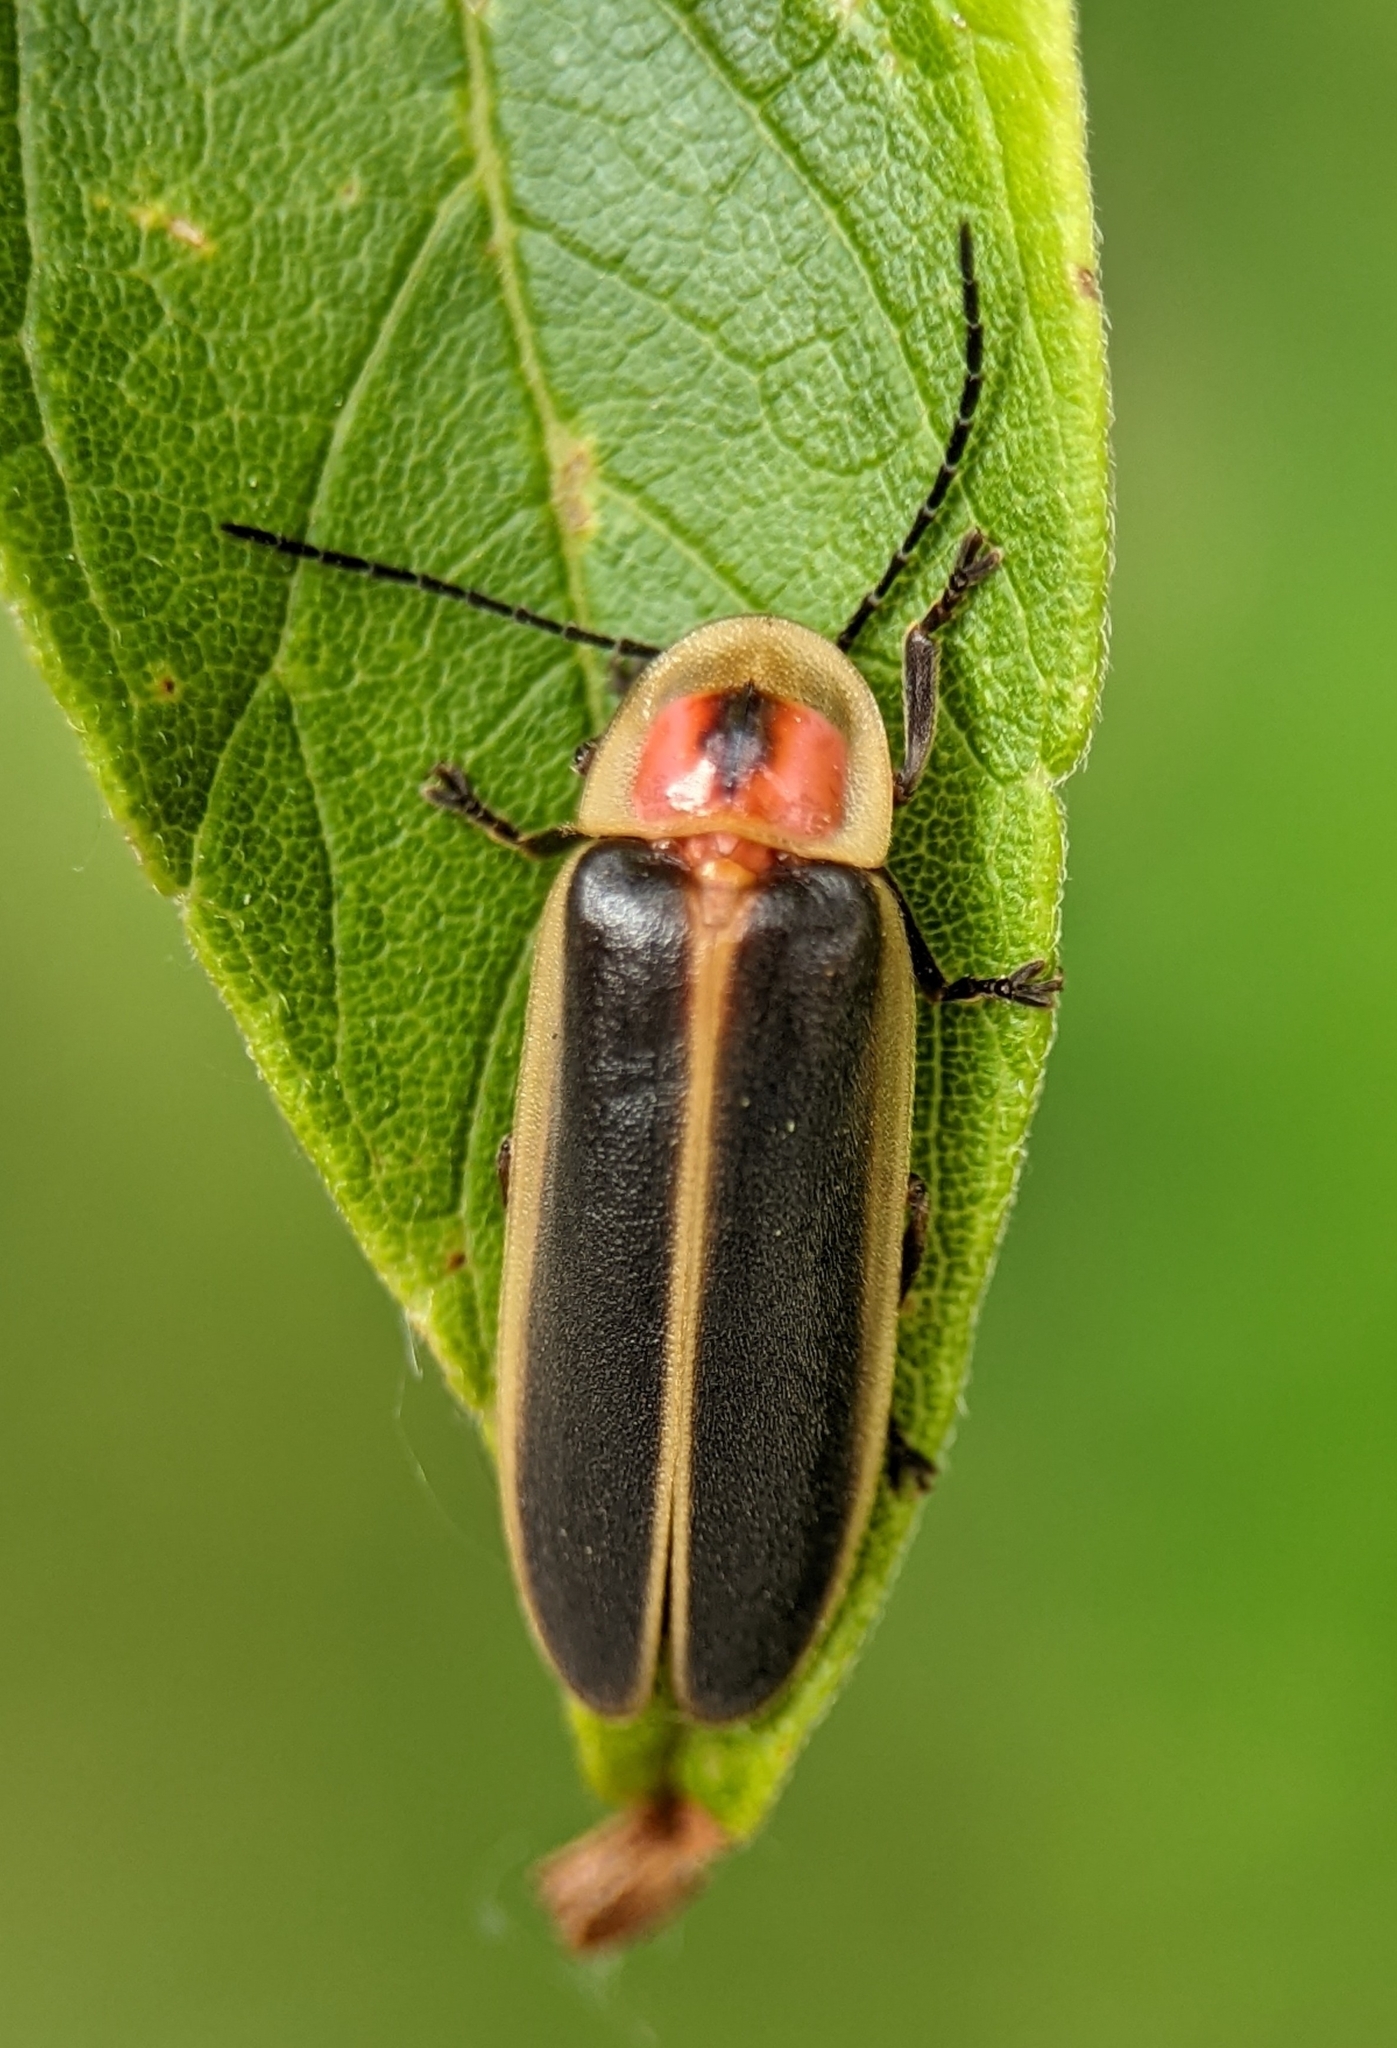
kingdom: Animalia
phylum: Arthropoda
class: Insecta
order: Coleoptera
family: Lampyridae
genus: Photinus
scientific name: Photinus pyralis
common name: Big dipper firefly
